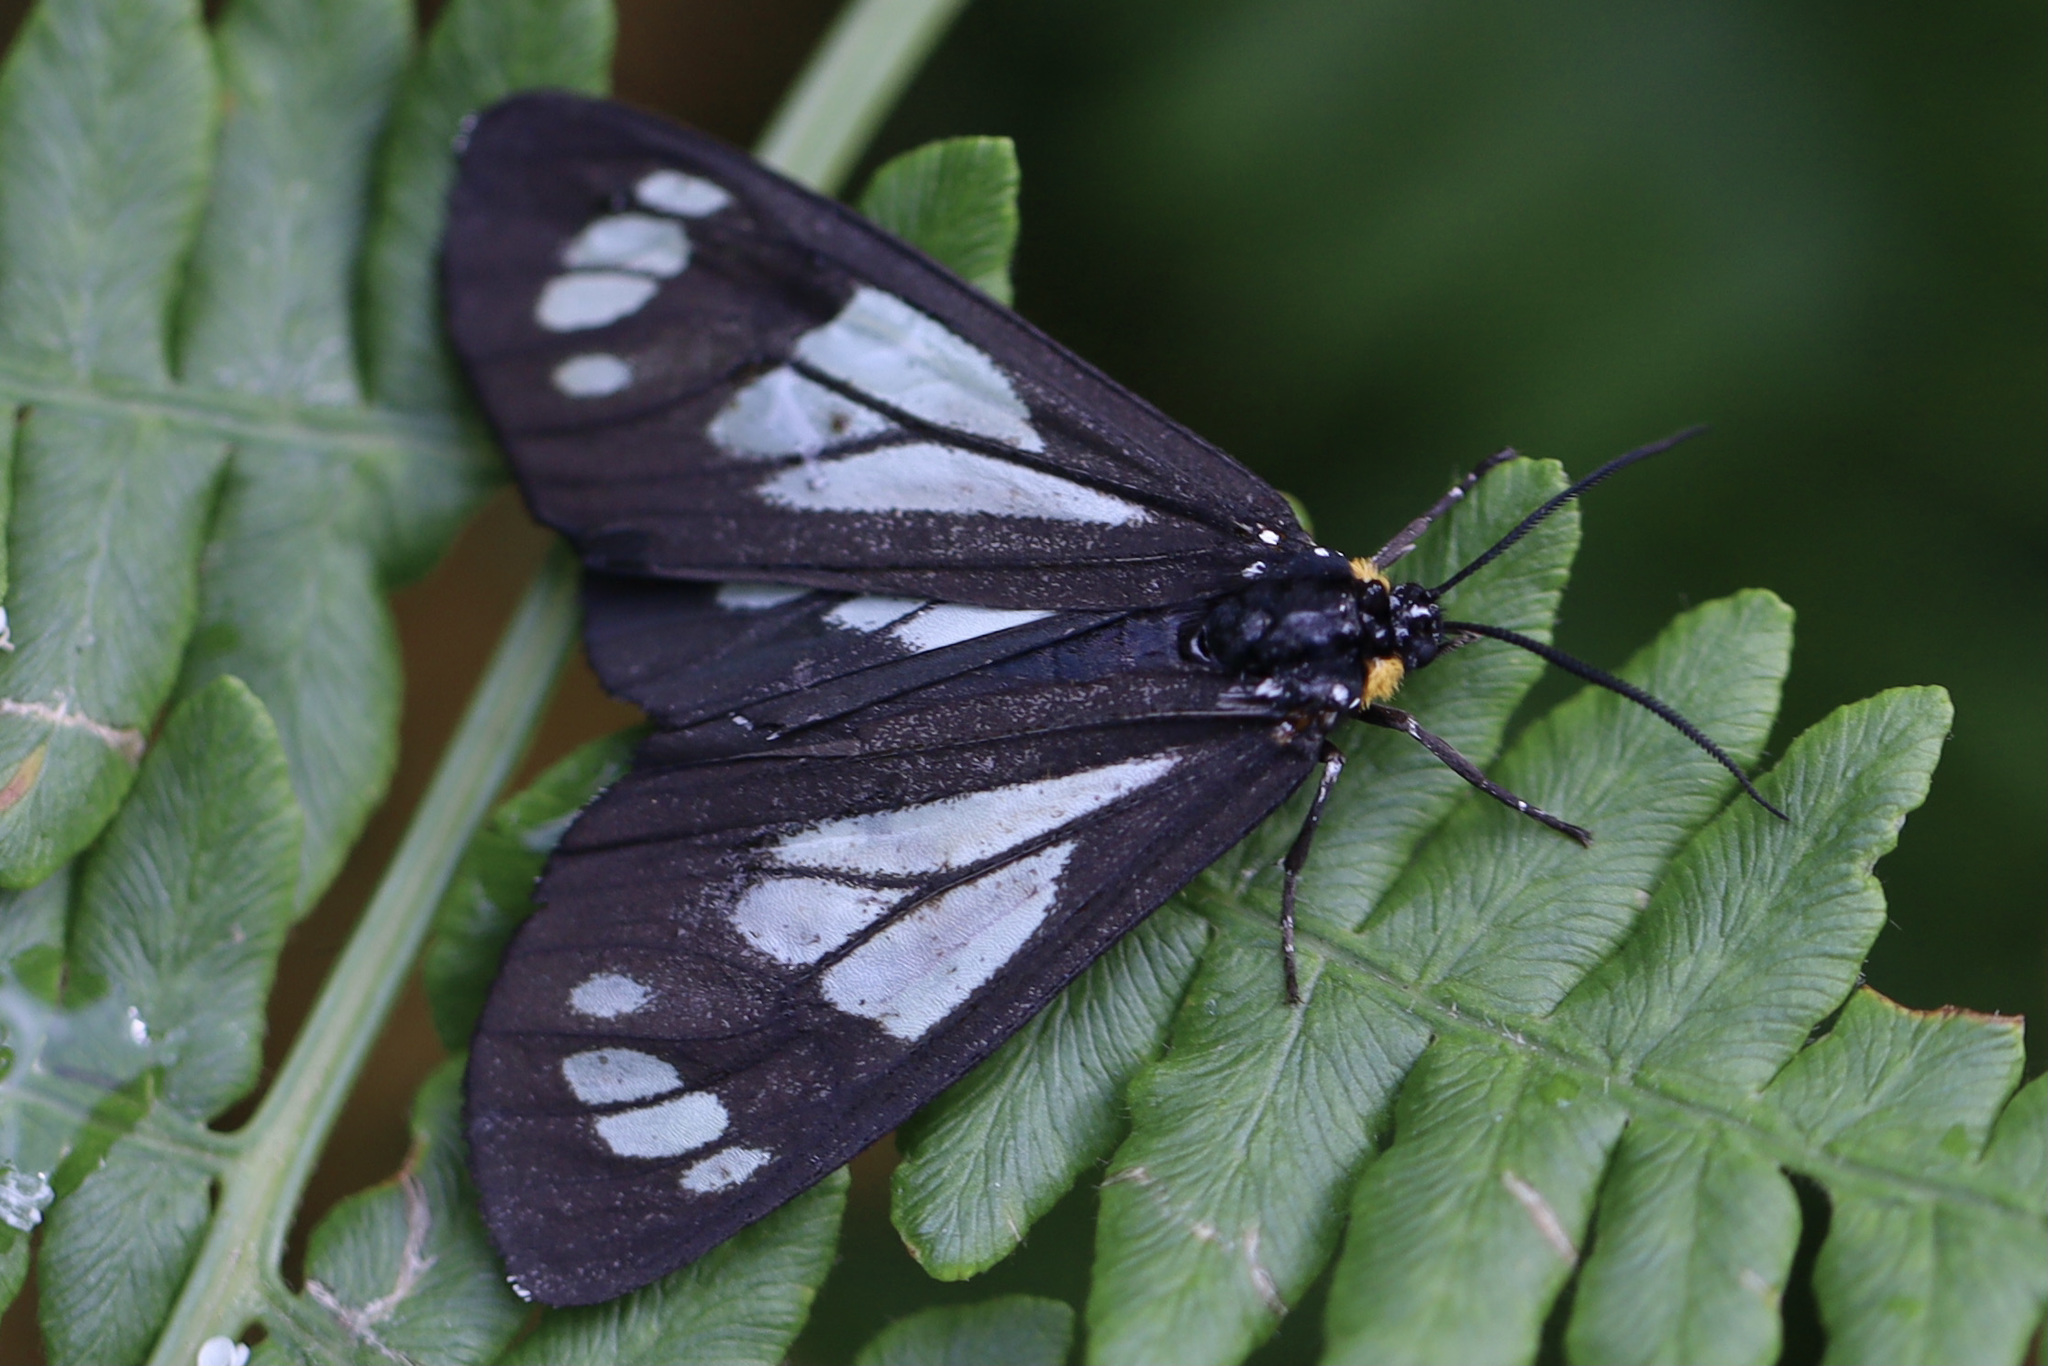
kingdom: Animalia
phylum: Arthropoda
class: Insecta
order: Lepidoptera
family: Erebidae
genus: Gnophaela
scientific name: Gnophaela vermiculata
